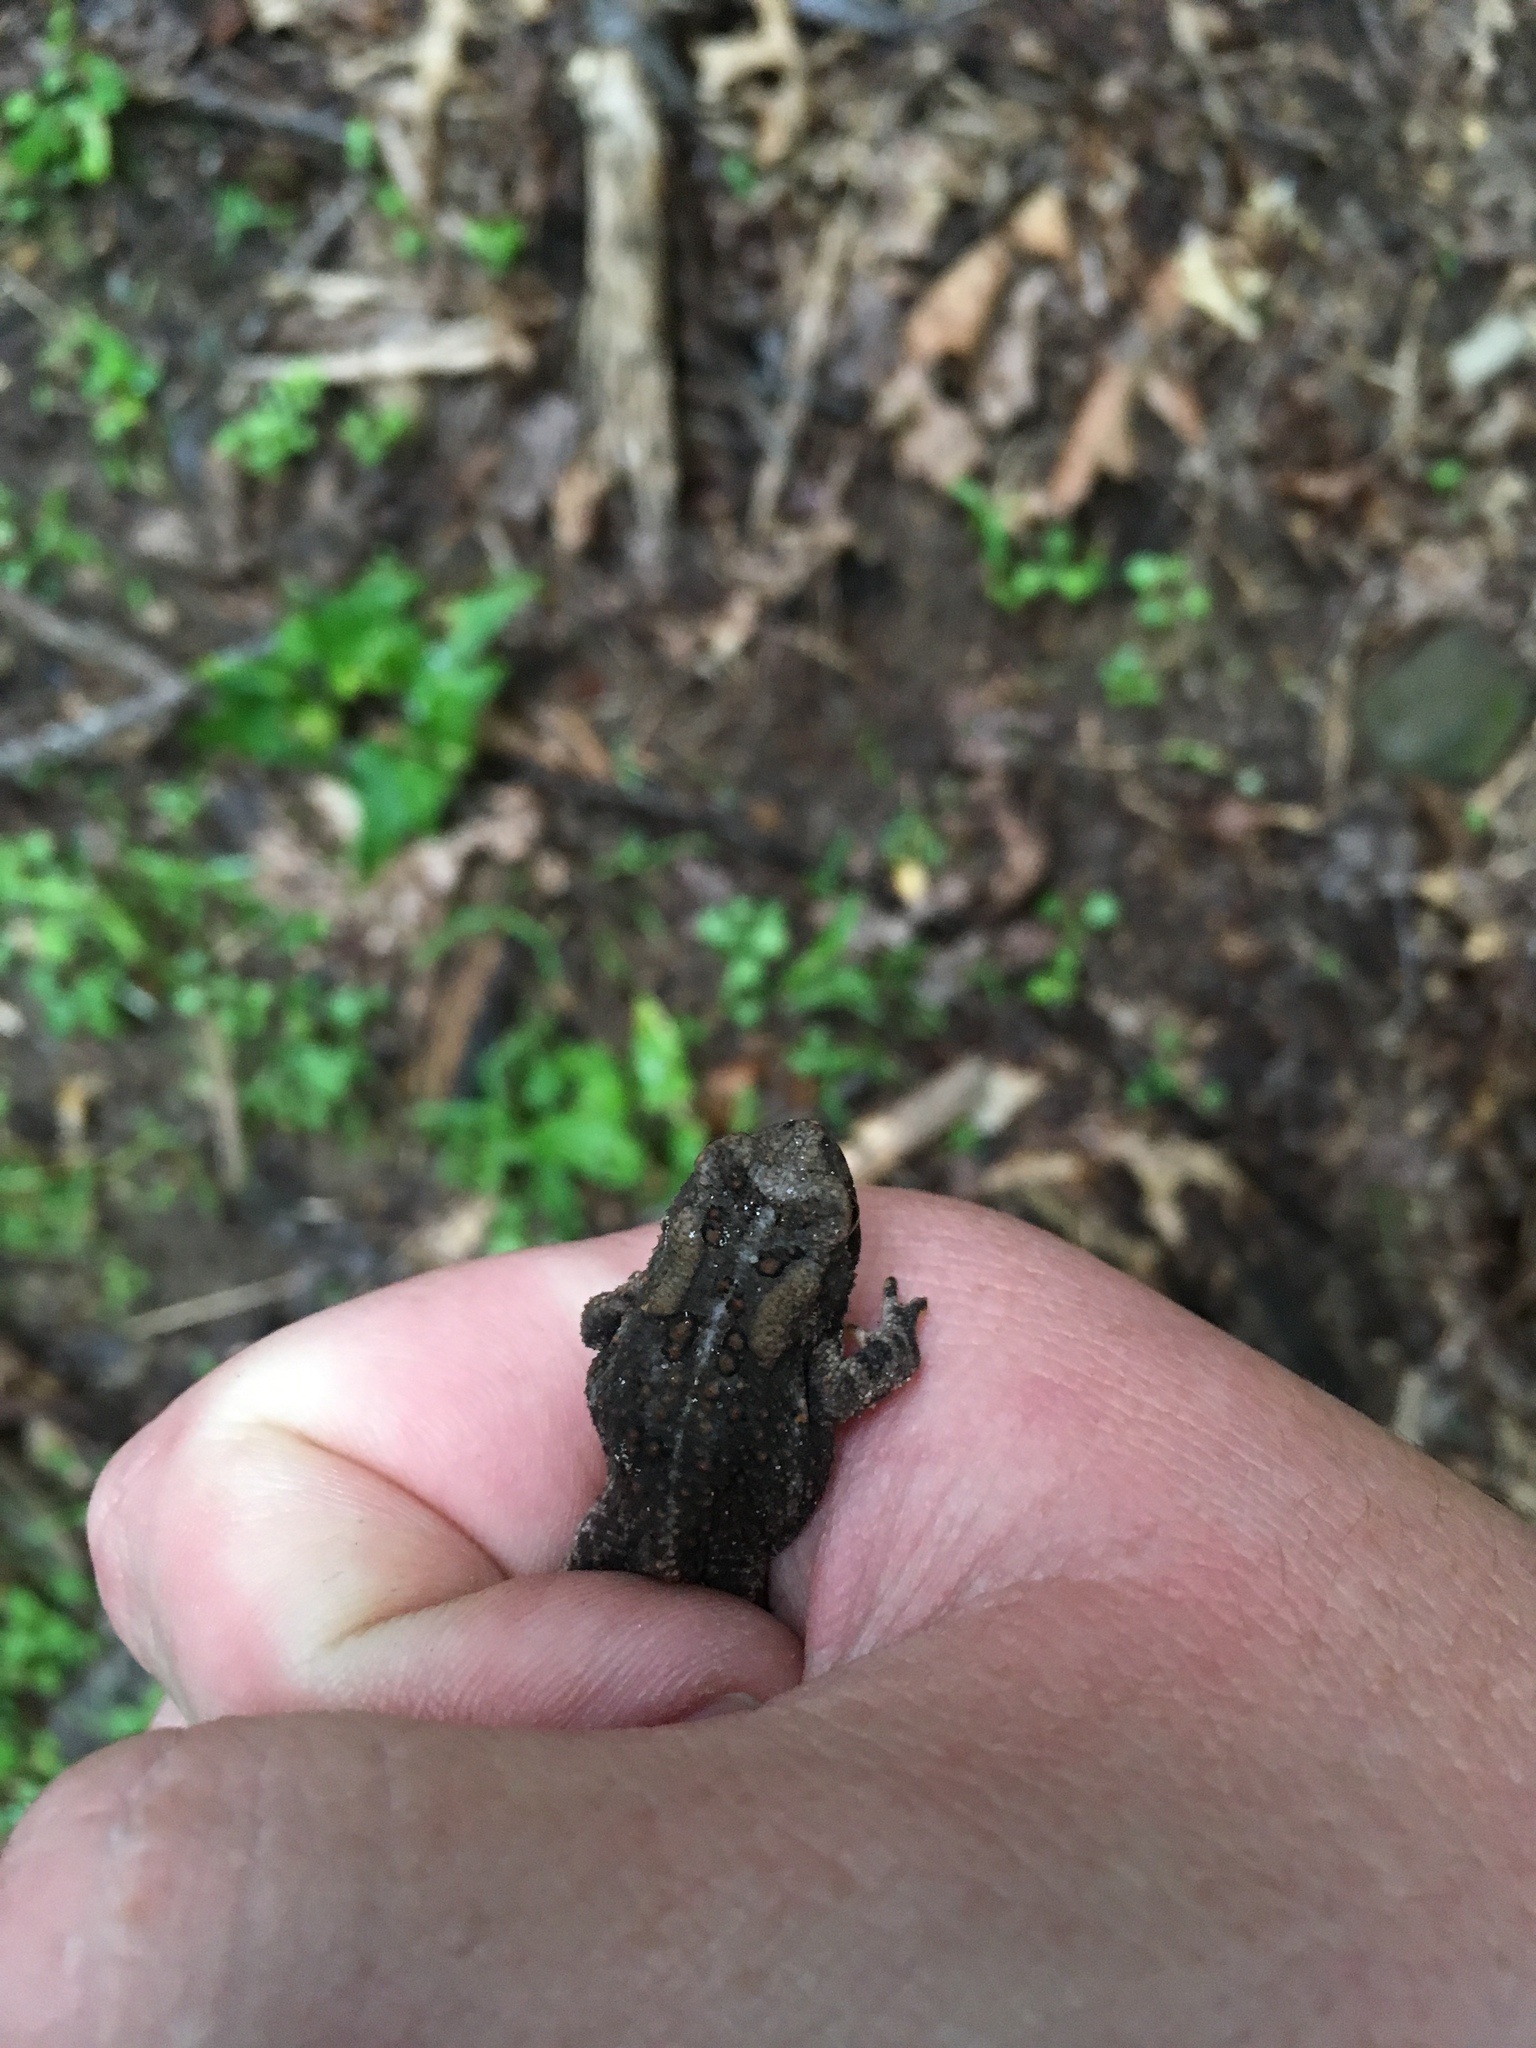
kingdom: Animalia
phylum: Chordata
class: Amphibia
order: Anura
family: Bufonidae
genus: Anaxyrus
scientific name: Anaxyrus americanus
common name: American toad
